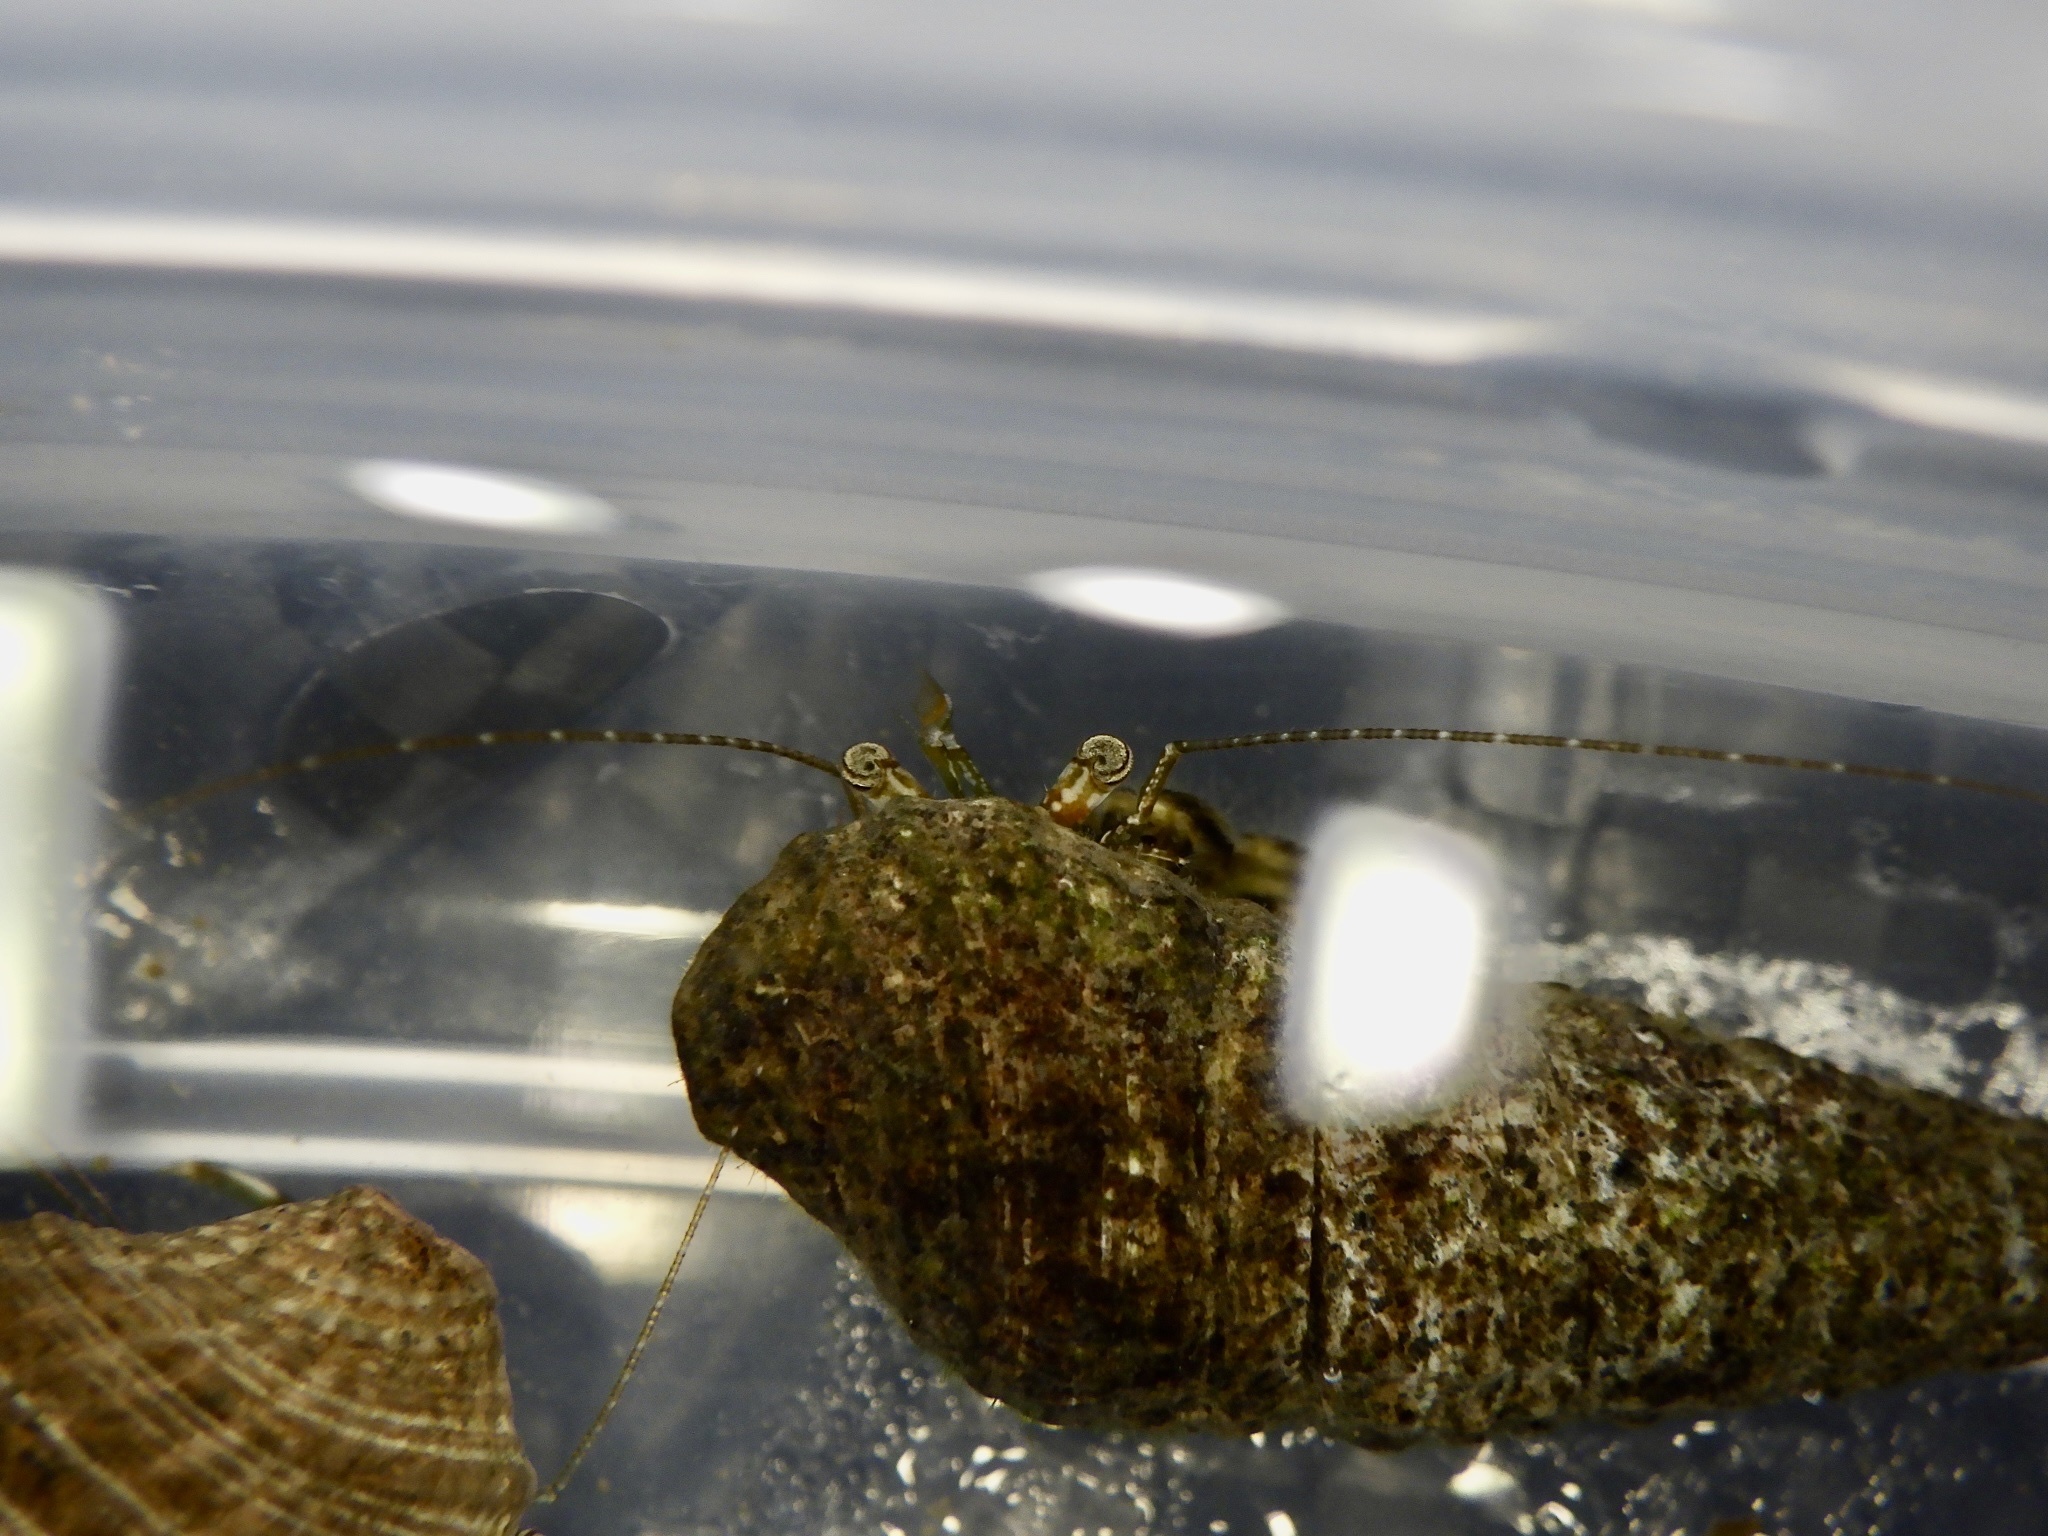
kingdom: Animalia
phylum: Arthropoda
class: Malacostraca
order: Decapoda
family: Paguridae
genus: Pagurus
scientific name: Pagurus minutus
